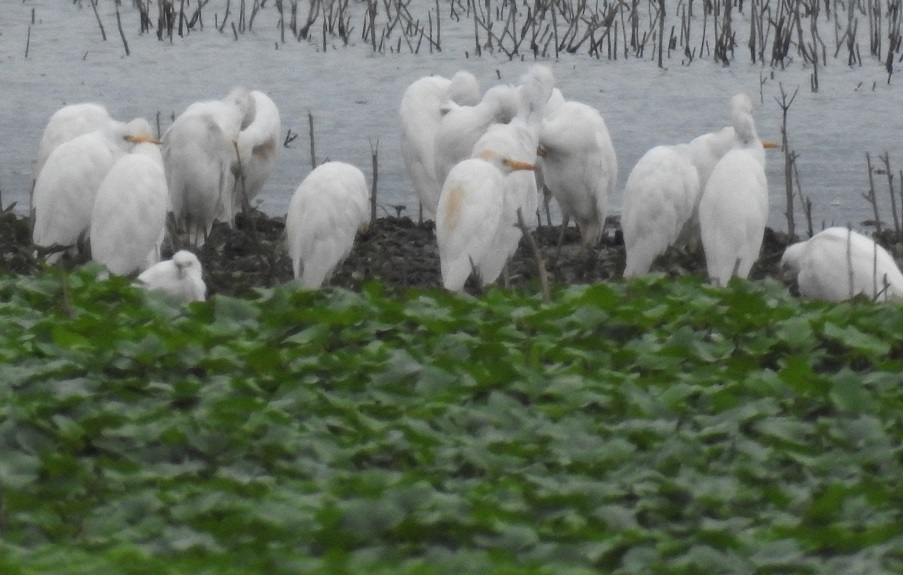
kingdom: Animalia
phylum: Chordata
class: Aves
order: Pelecaniformes
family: Ardeidae
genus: Bubulcus
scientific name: Bubulcus ibis
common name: Cattle egret
